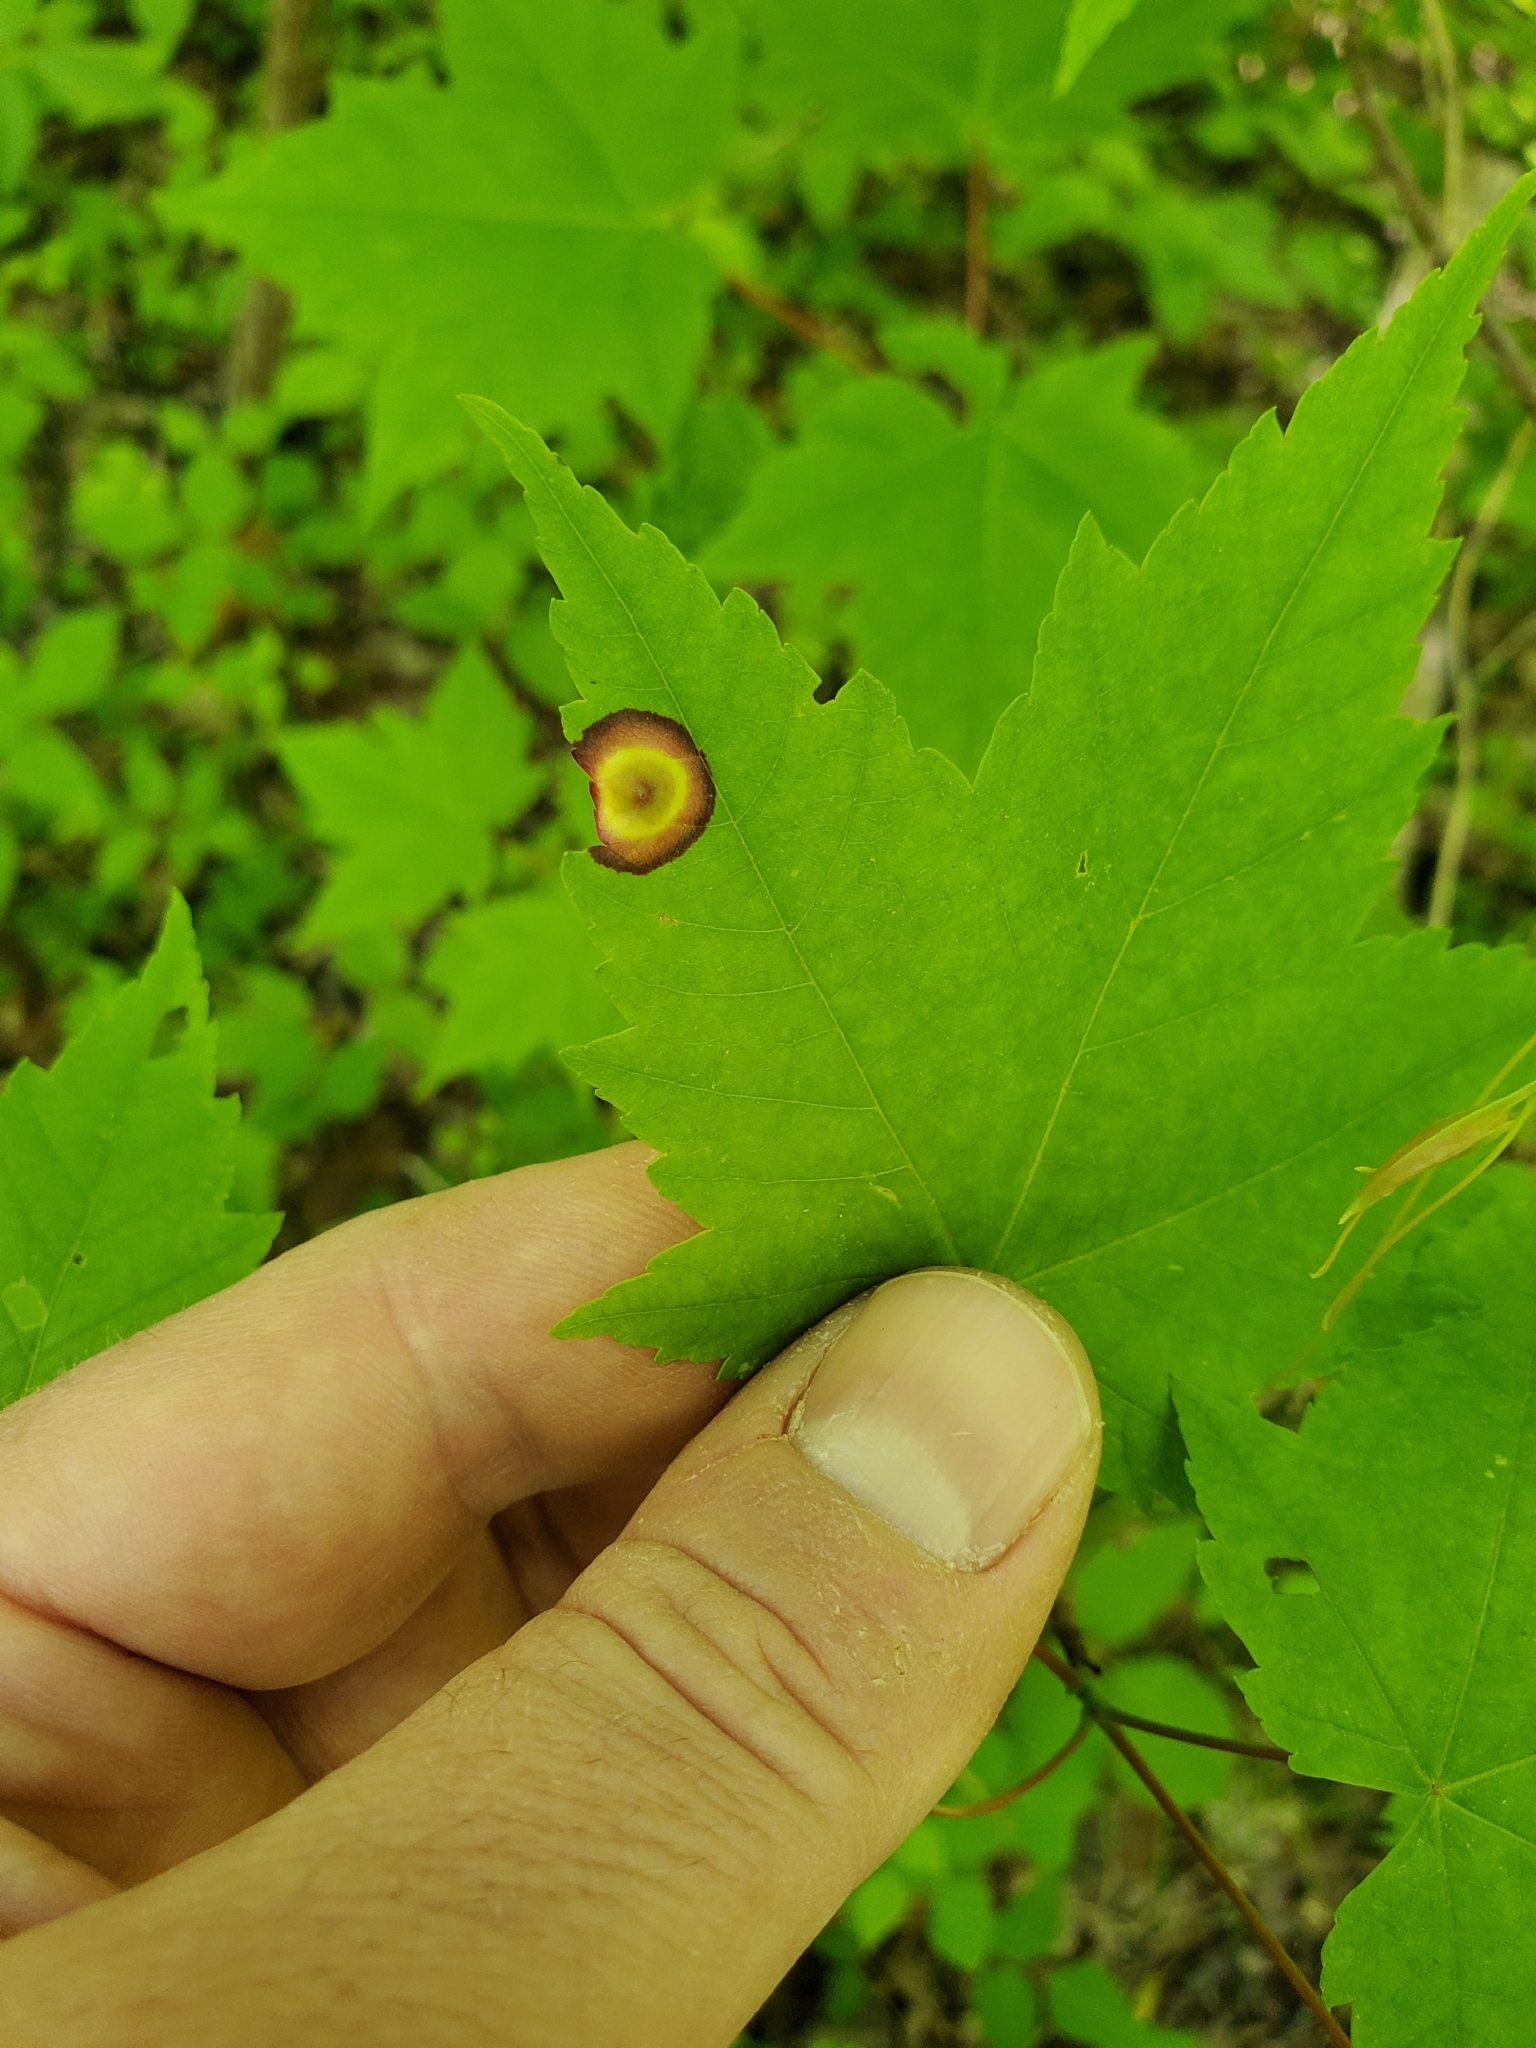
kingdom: Animalia
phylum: Arthropoda
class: Insecta
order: Diptera
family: Cecidomyiidae
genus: Acericecis
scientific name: Acericecis ocellaris
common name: Ocellate gall midge
